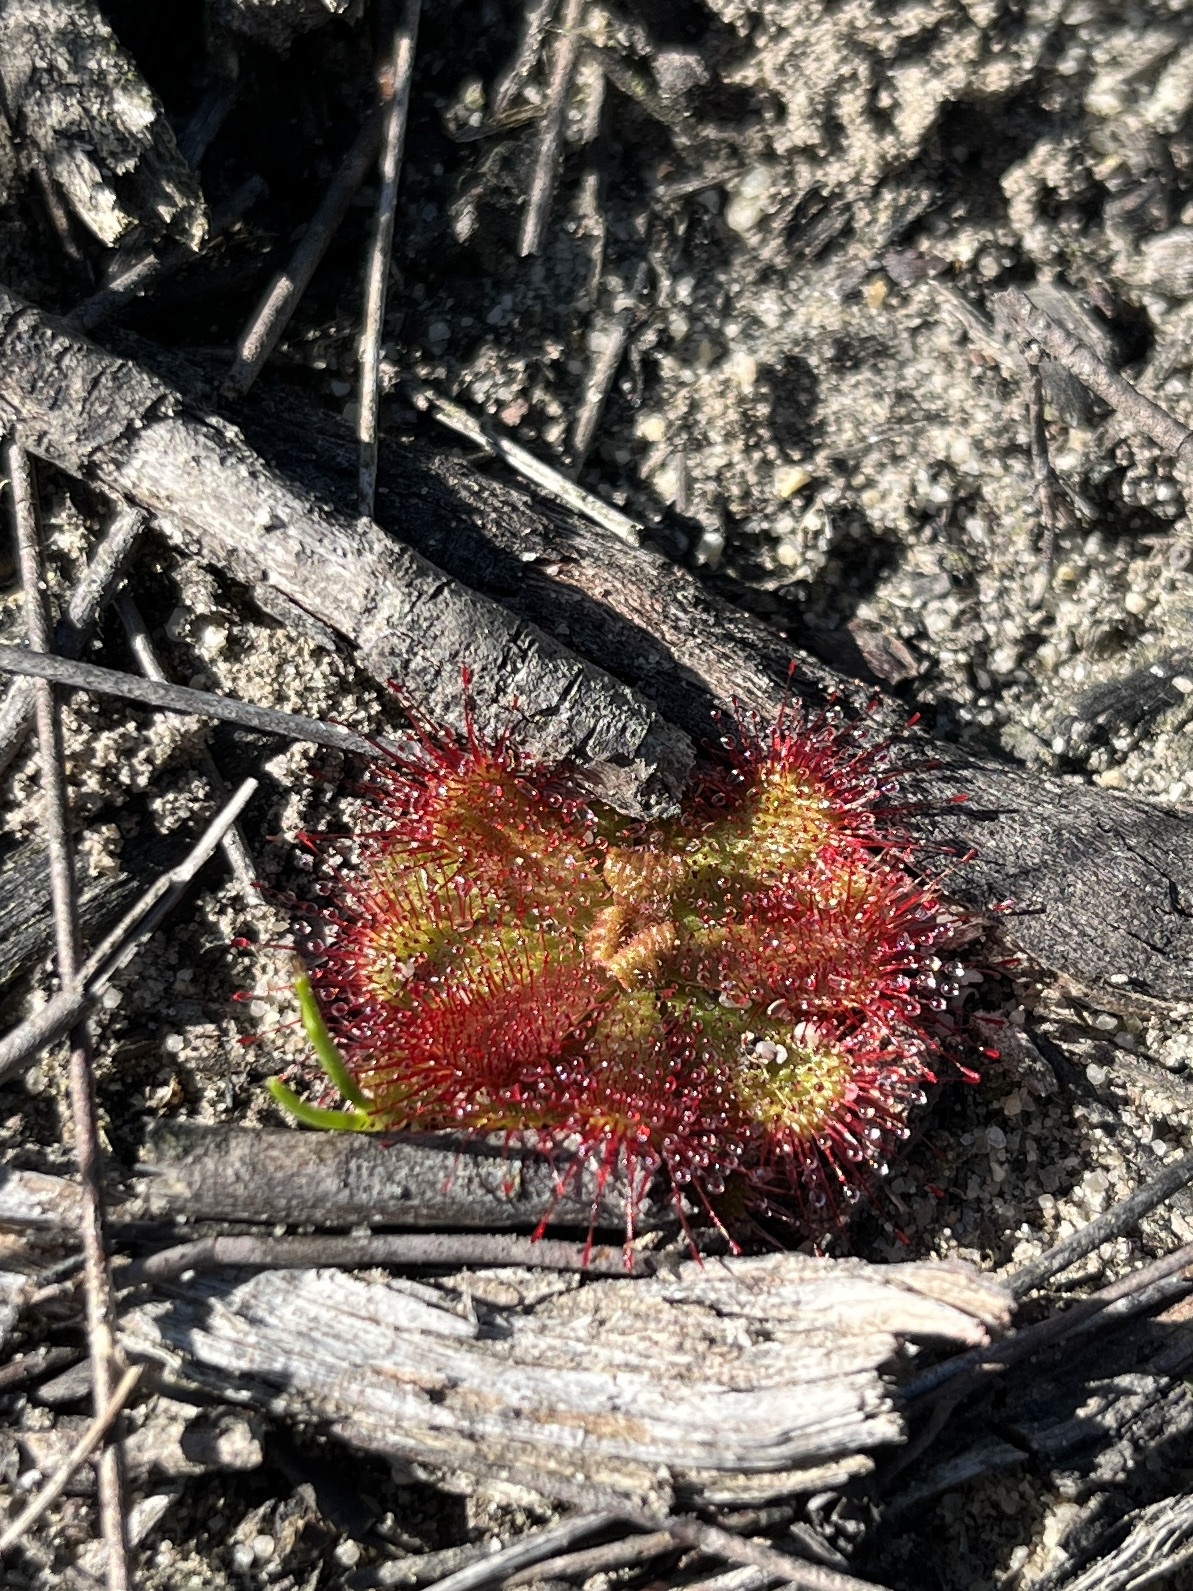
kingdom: Plantae
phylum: Tracheophyta
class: Magnoliopsida
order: Caryophyllales
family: Droseraceae
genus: Drosera
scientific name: Drosera trinervia
